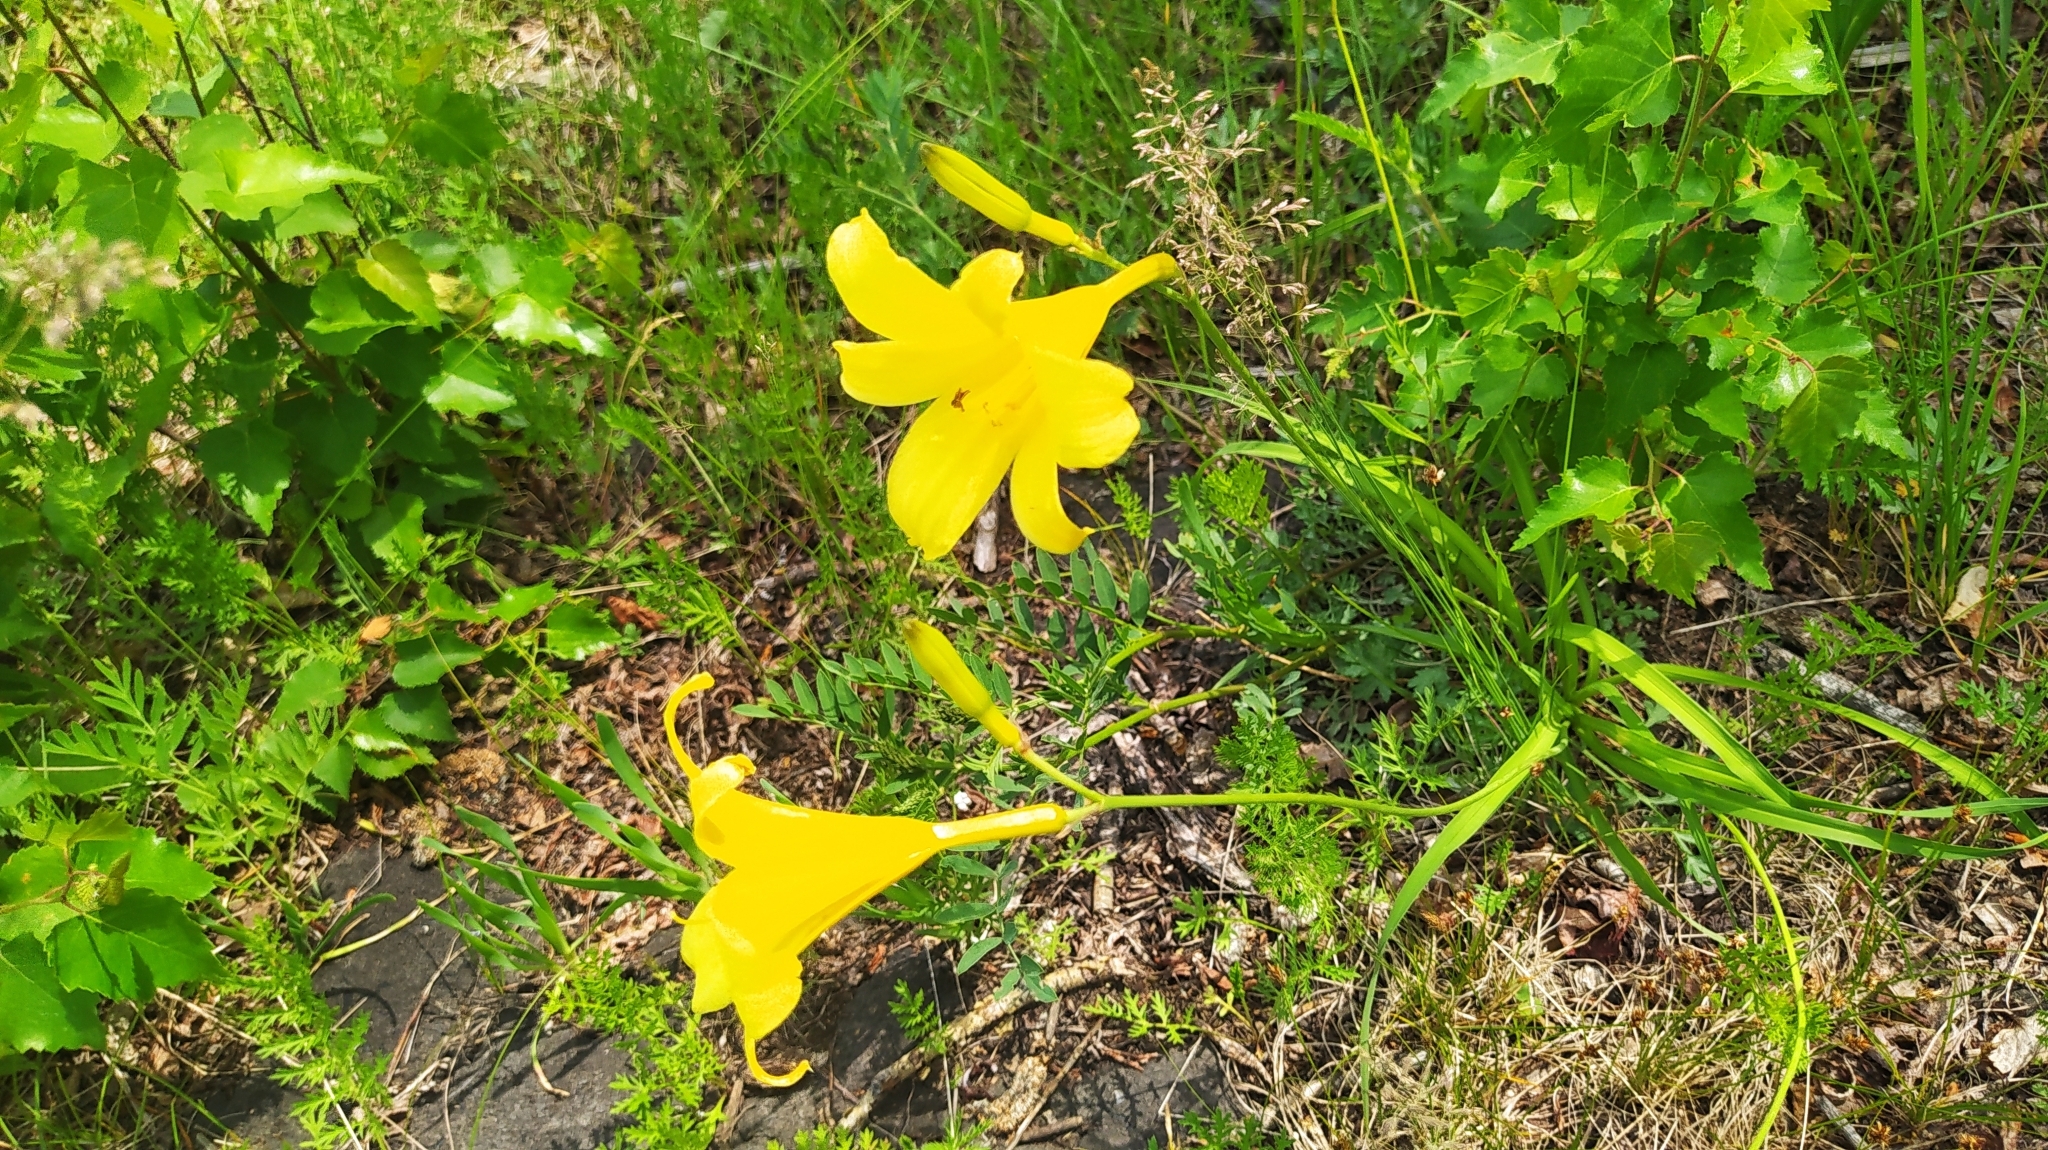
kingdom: Plantae
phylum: Tracheophyta
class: Liliopsida
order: Asparagales
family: Asphodelaceae
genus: Hemerocallis
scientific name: Hemerocallis minor
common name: Small daylily
